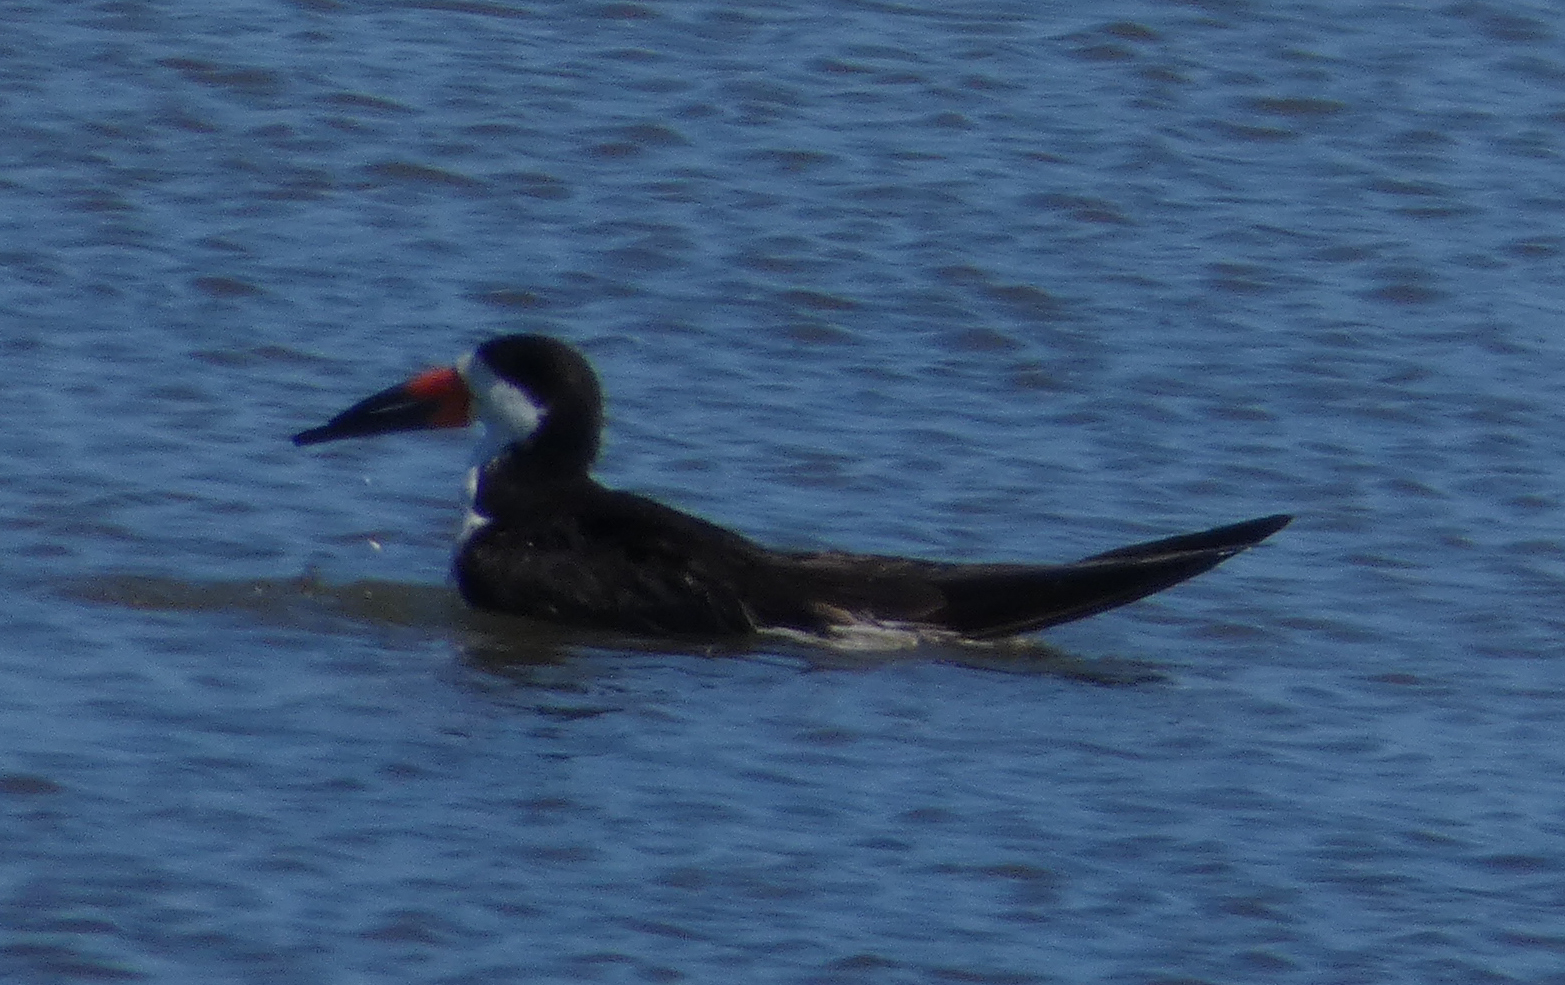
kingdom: Animalia
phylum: Chordata
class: Aves
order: Charadriiformes
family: Laridae
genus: Rynchops
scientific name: Rynchops niger
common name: Black skimmer
